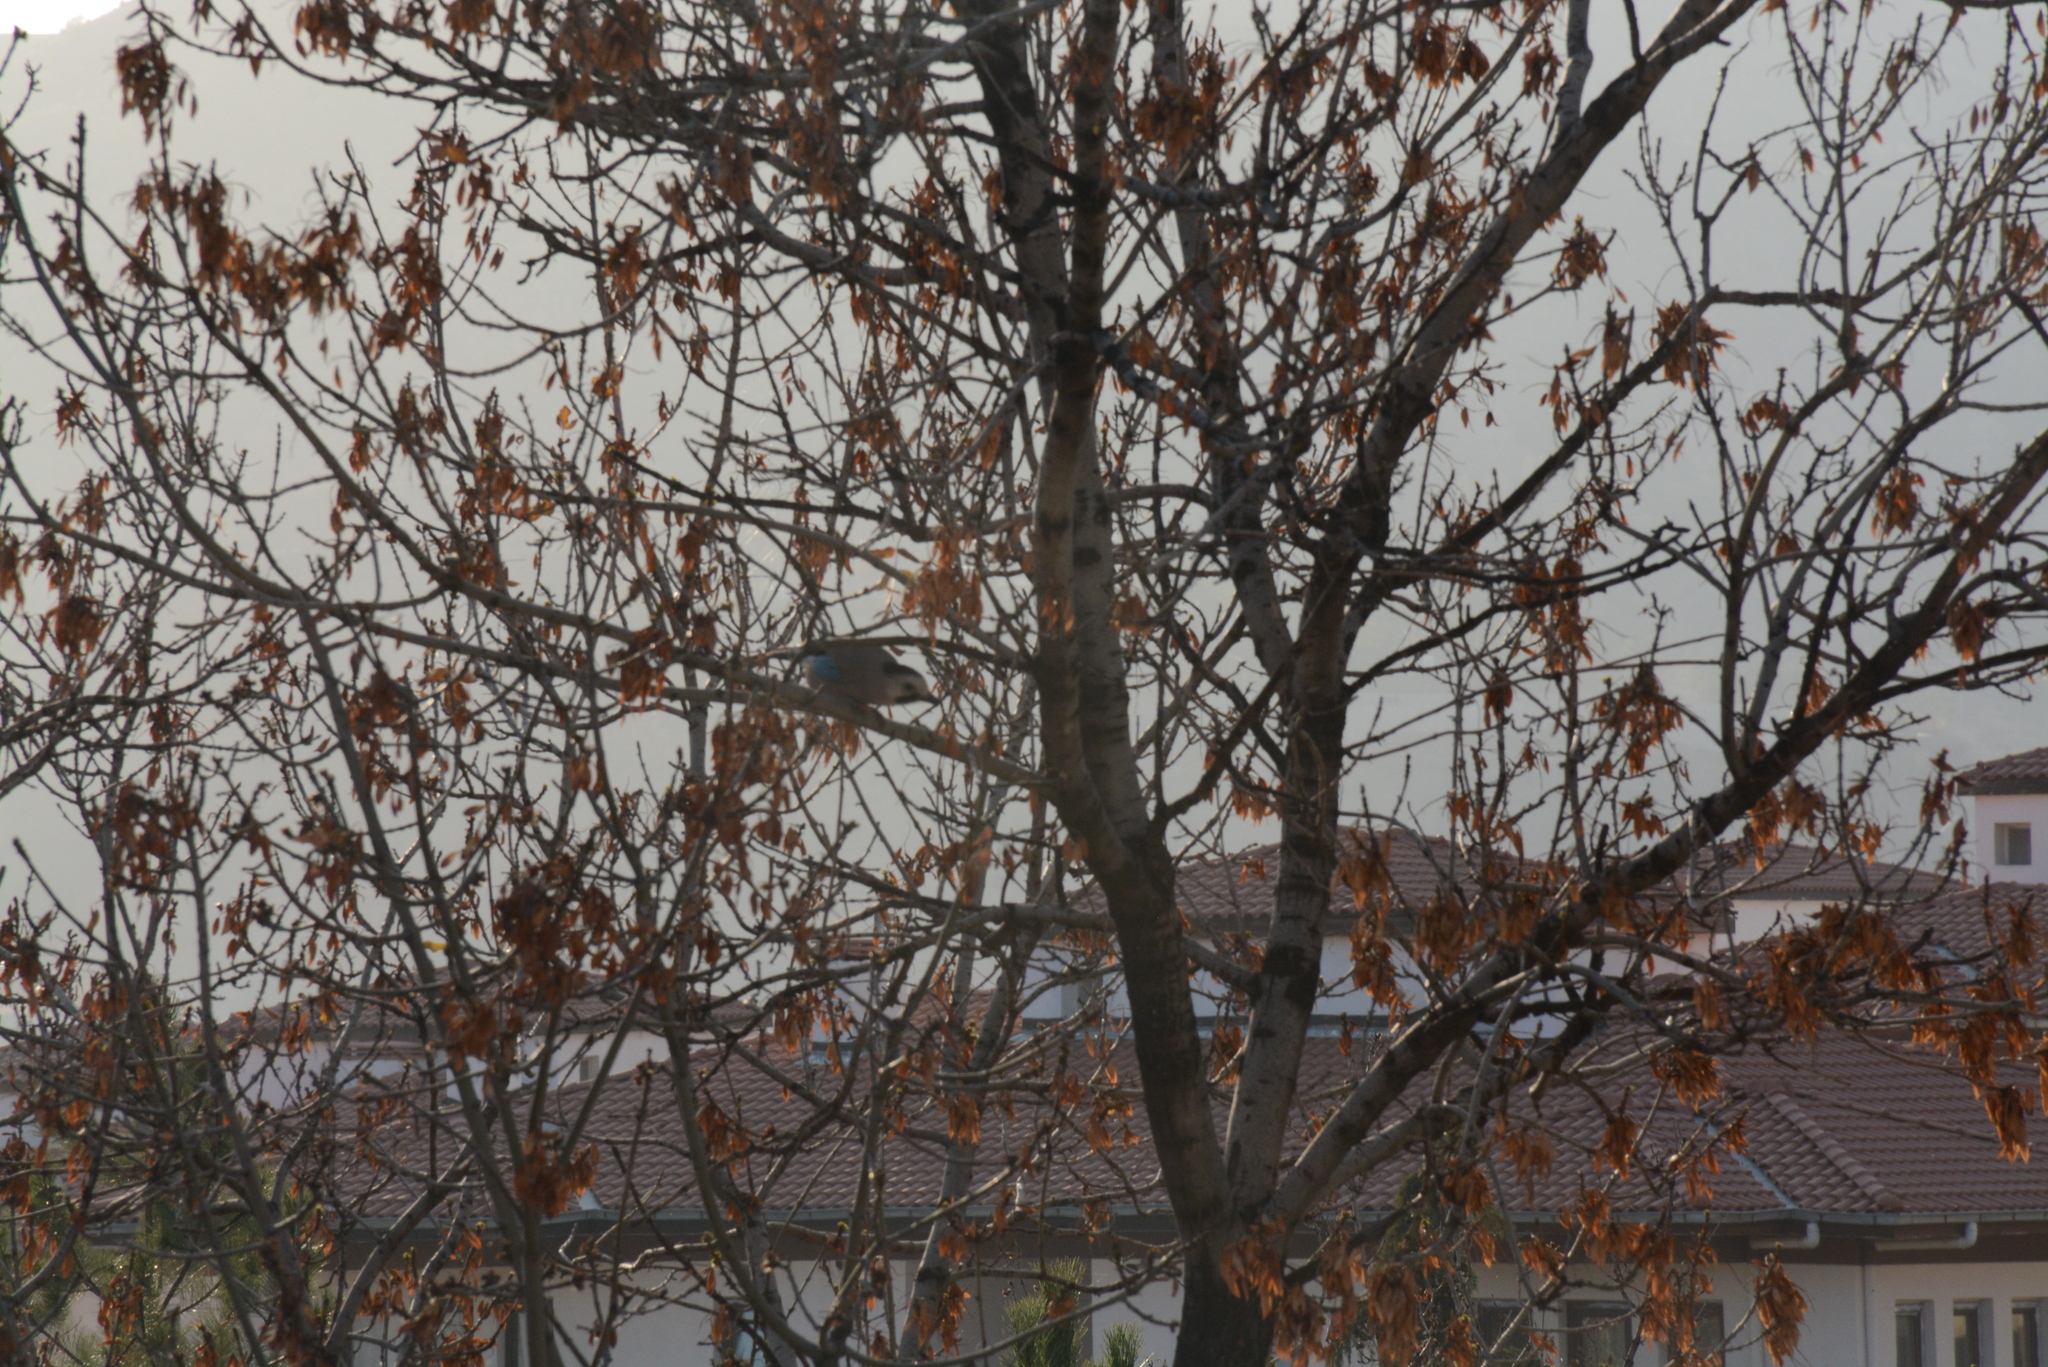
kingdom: Animalia
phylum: Chordata
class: Aves
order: Passeriformes
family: Corvidae
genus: Garrulus
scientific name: Garrulus glandarius
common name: Eurasian jay
